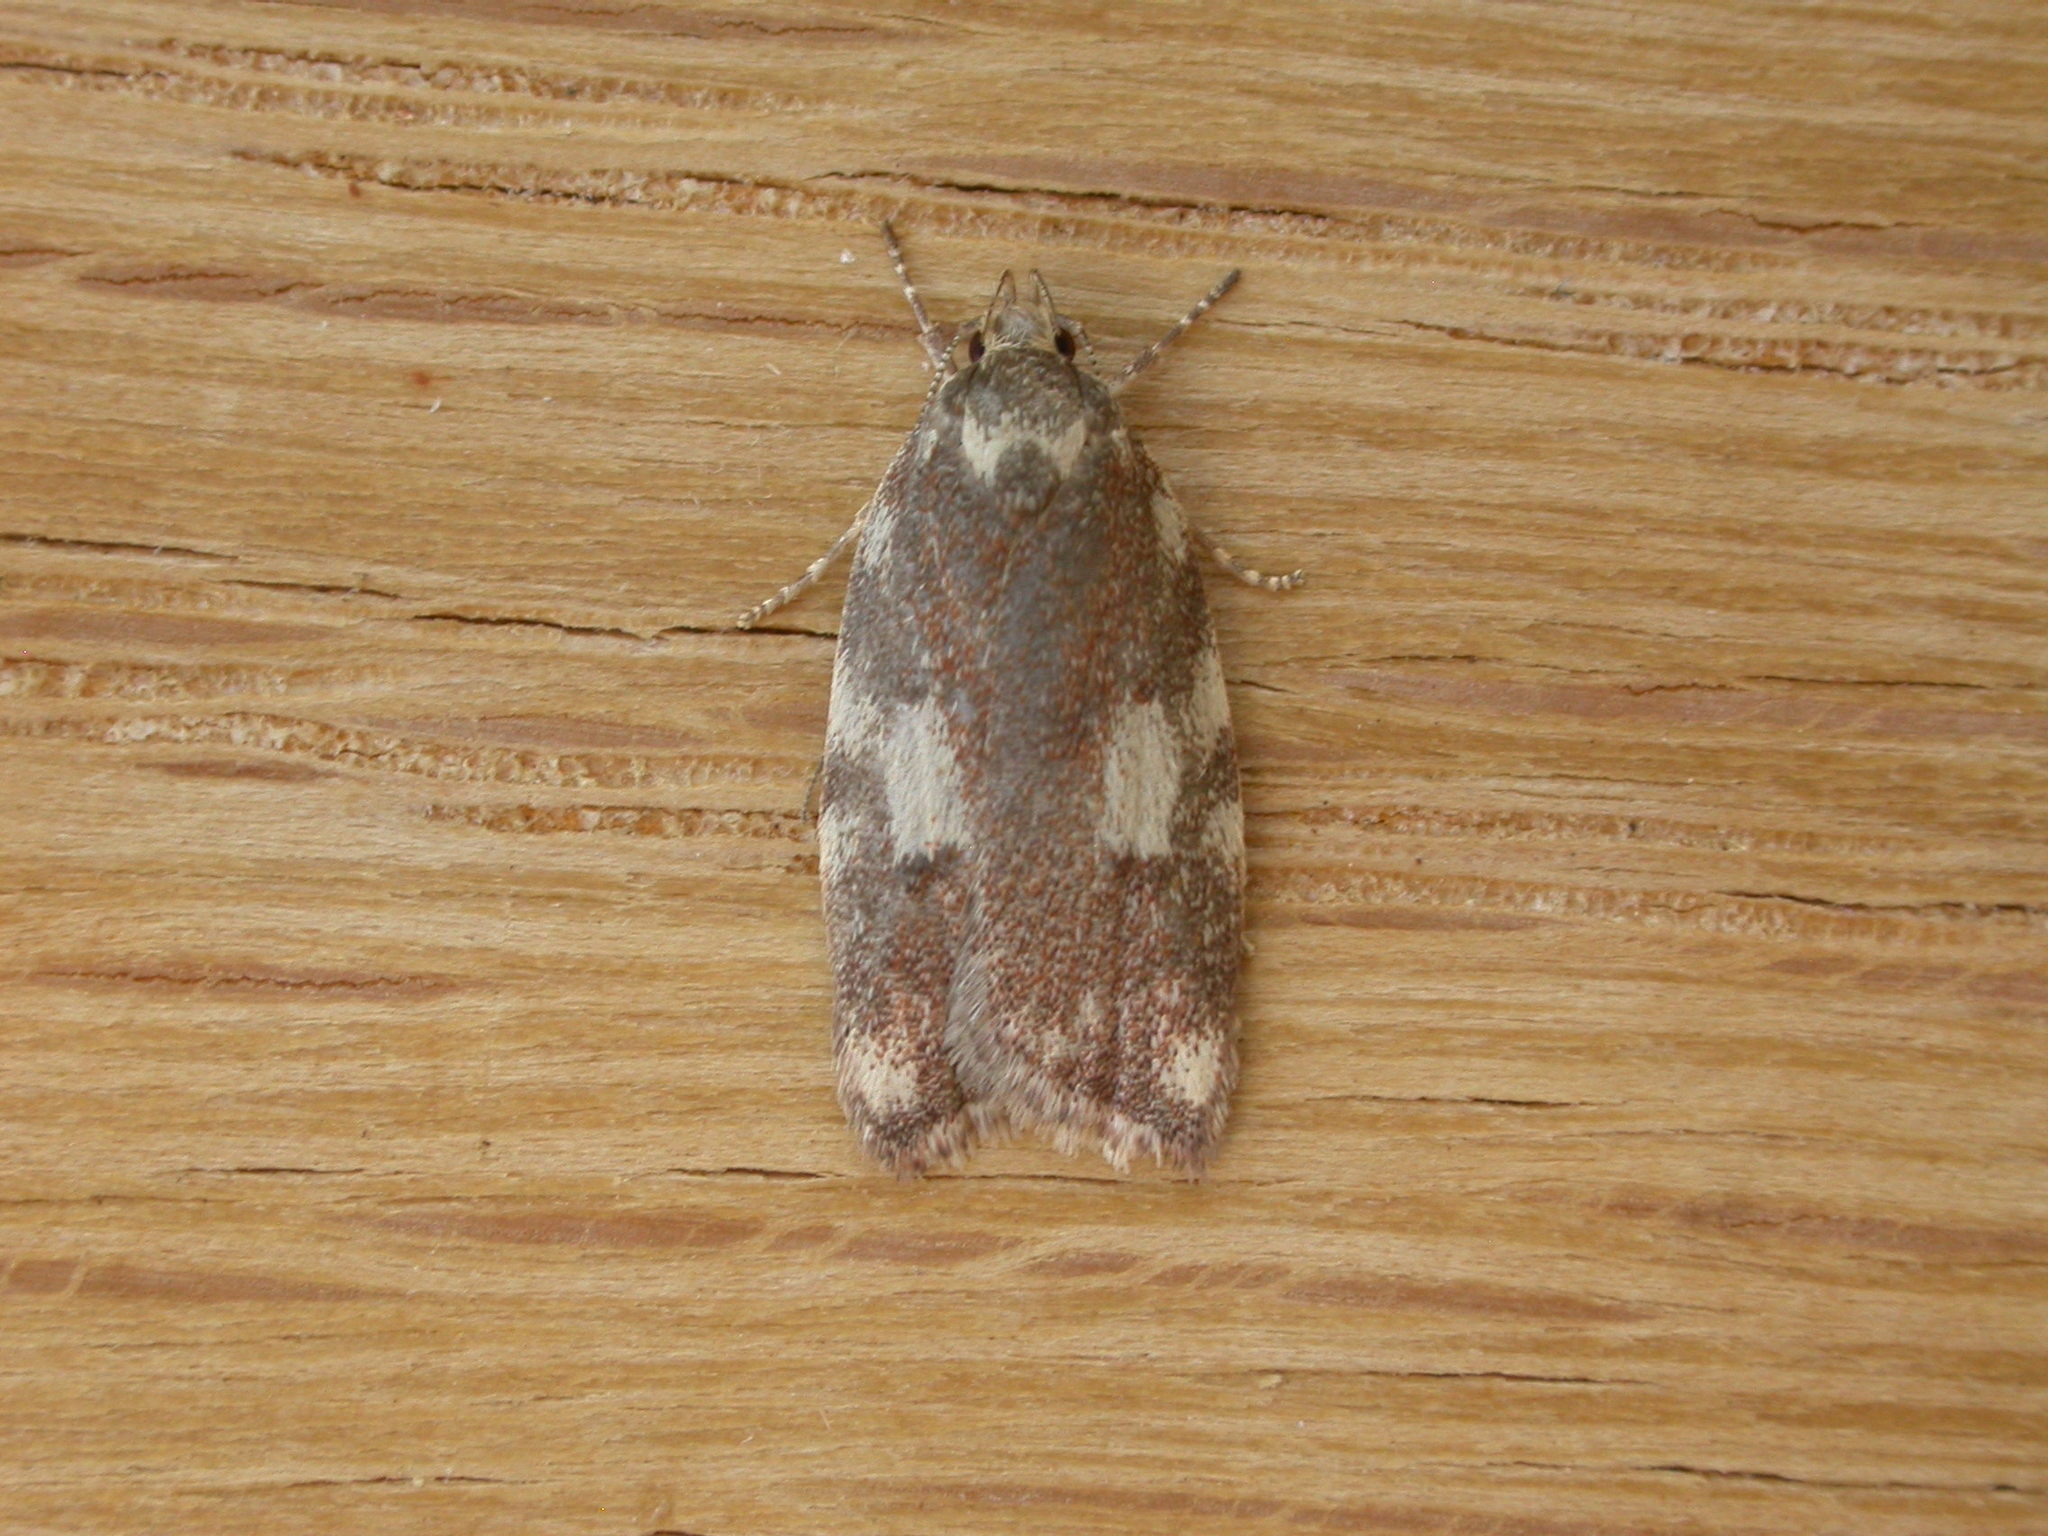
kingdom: Animalia
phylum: Arthropoda
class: Insecta
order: Lepidoptera
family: Oecophoridae
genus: Syringoseca
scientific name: Syringoseca mimica
